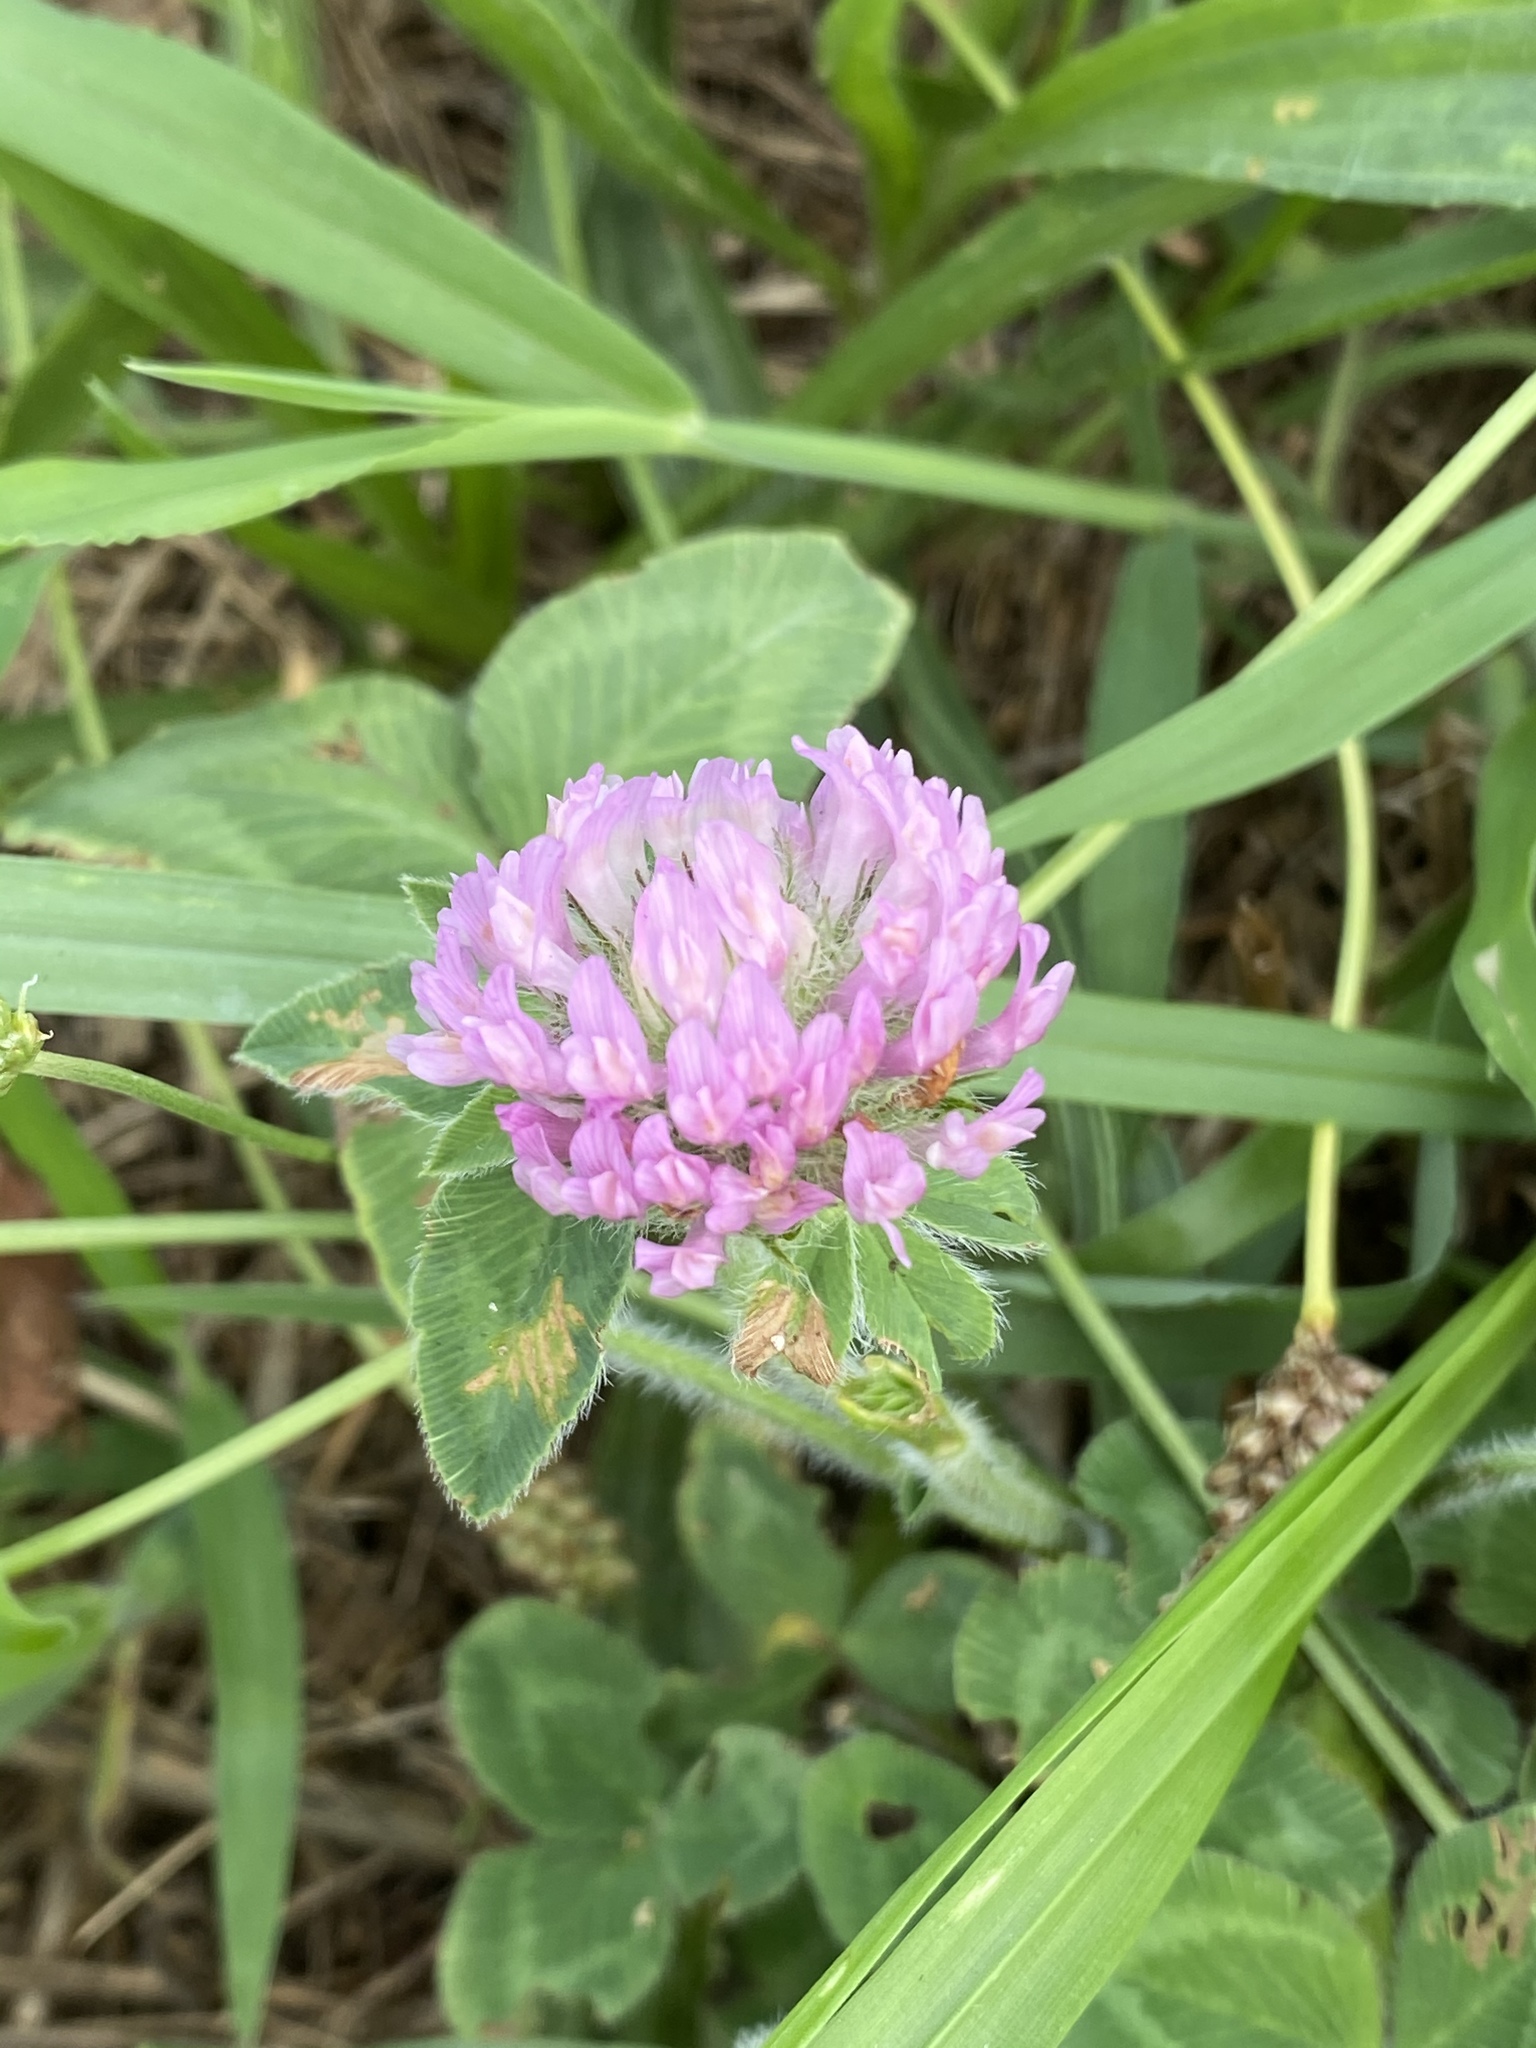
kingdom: Plantae
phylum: Tracheophyta
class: Magnoliopsida
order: Fabales
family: Fabaceae
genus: Trifolium
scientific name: Trifolium pratense
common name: Red clover
